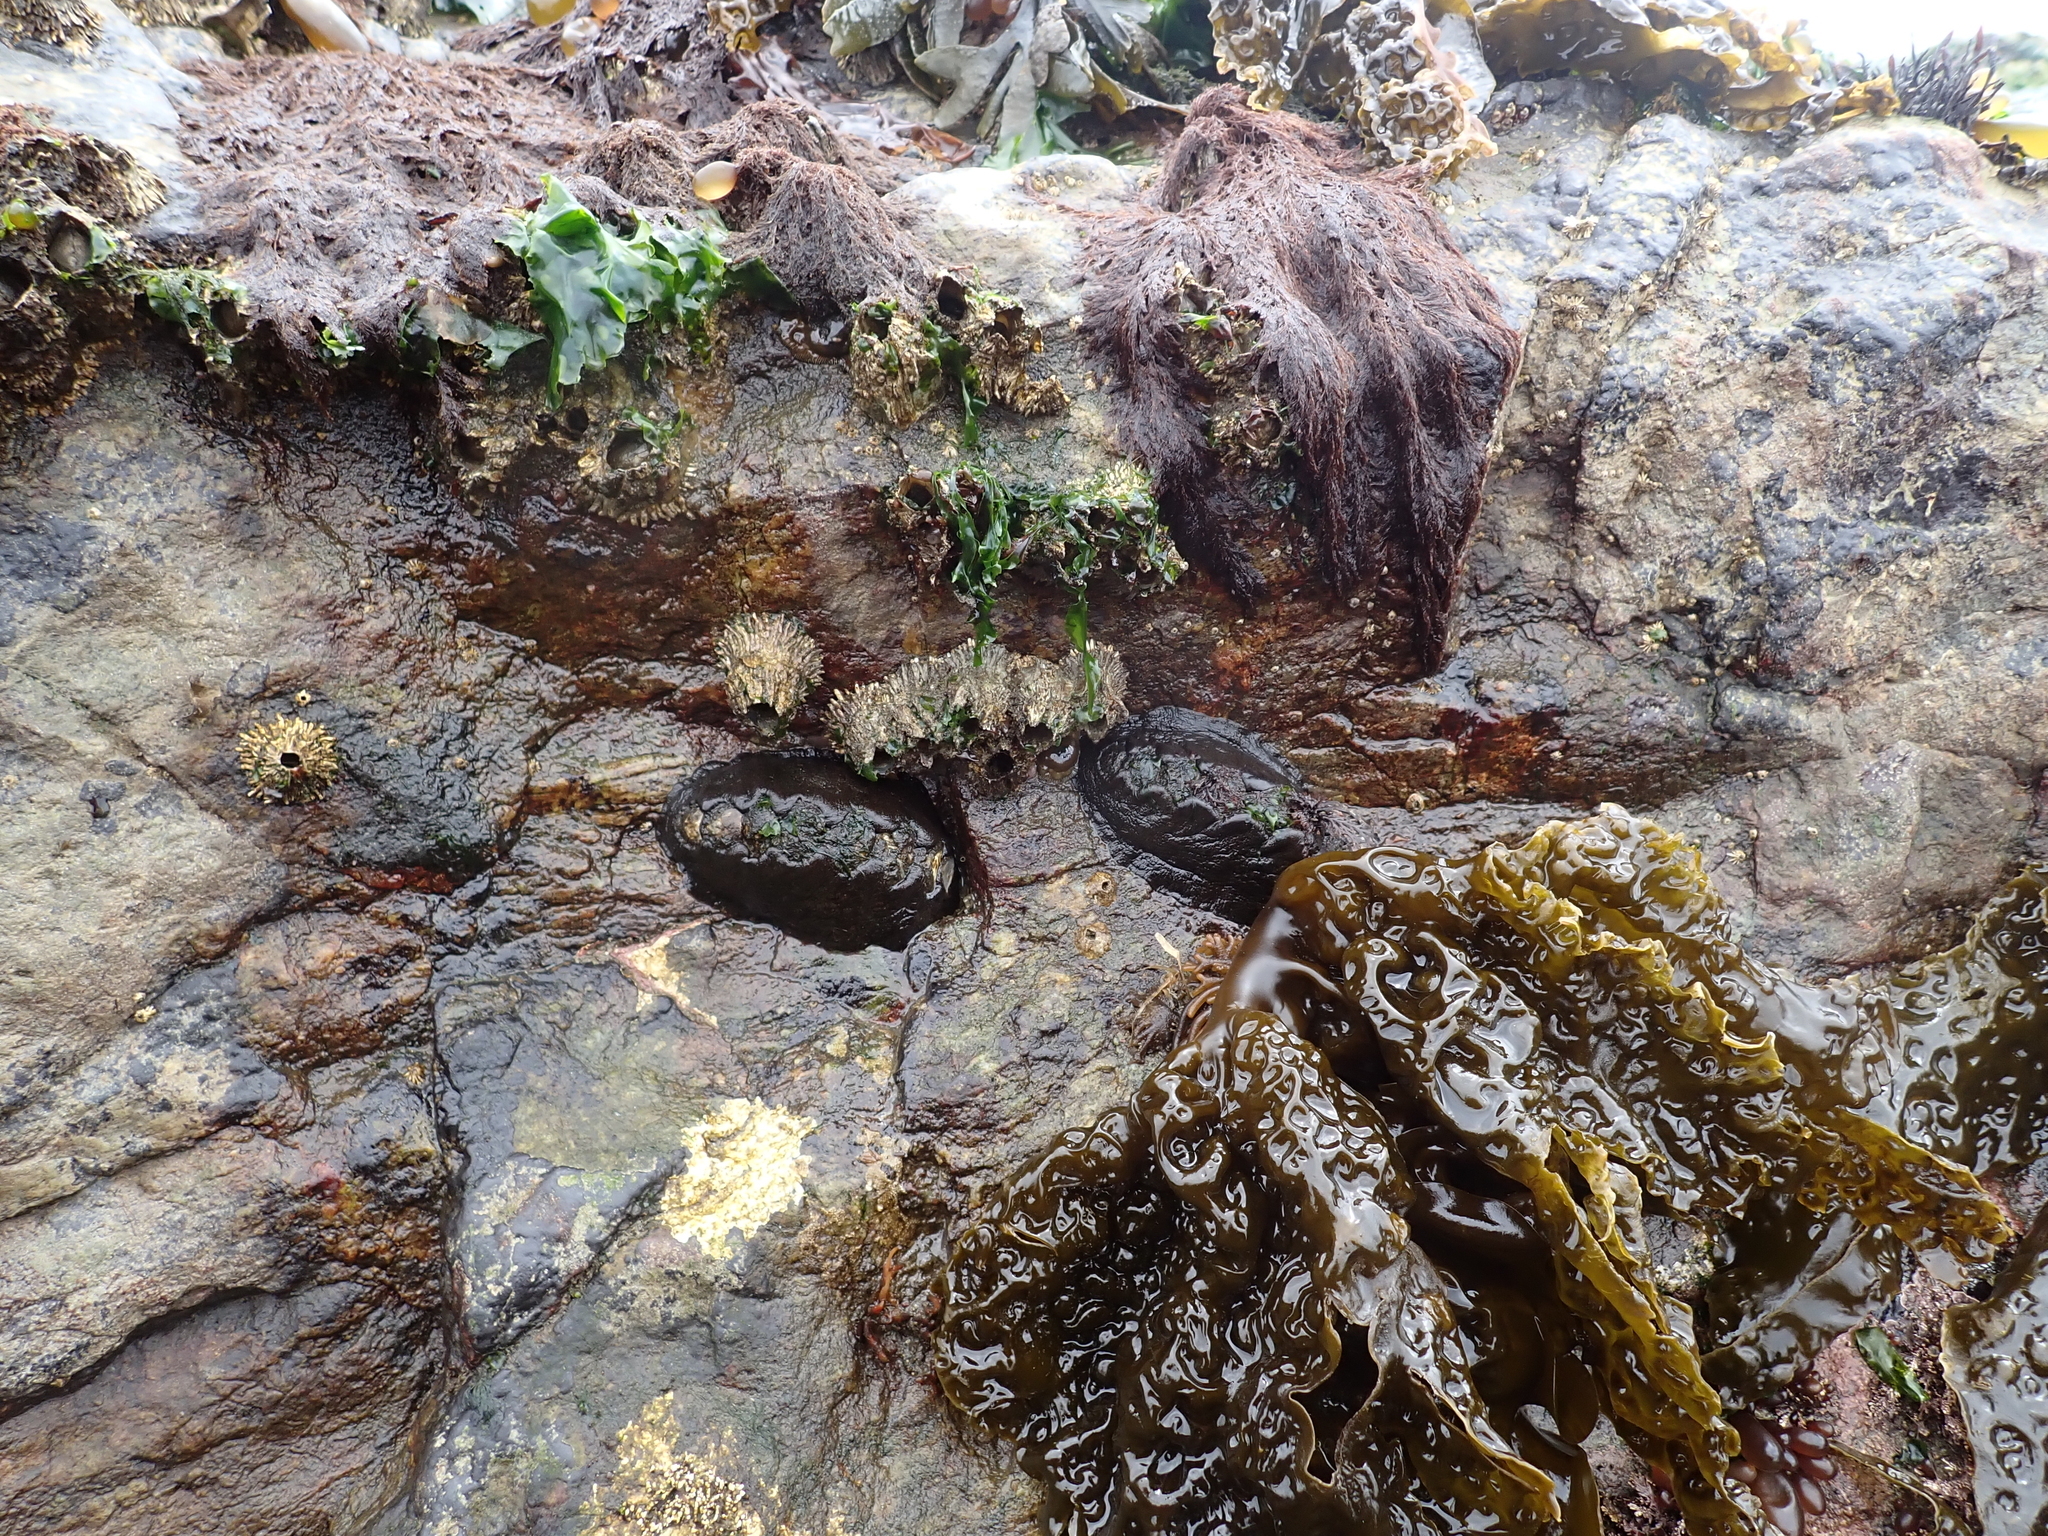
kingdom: Animalia
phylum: Mollusca
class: Polyplacophora
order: Chitonida
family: Mopaliidae
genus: Katharina
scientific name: Katharina tunicata
